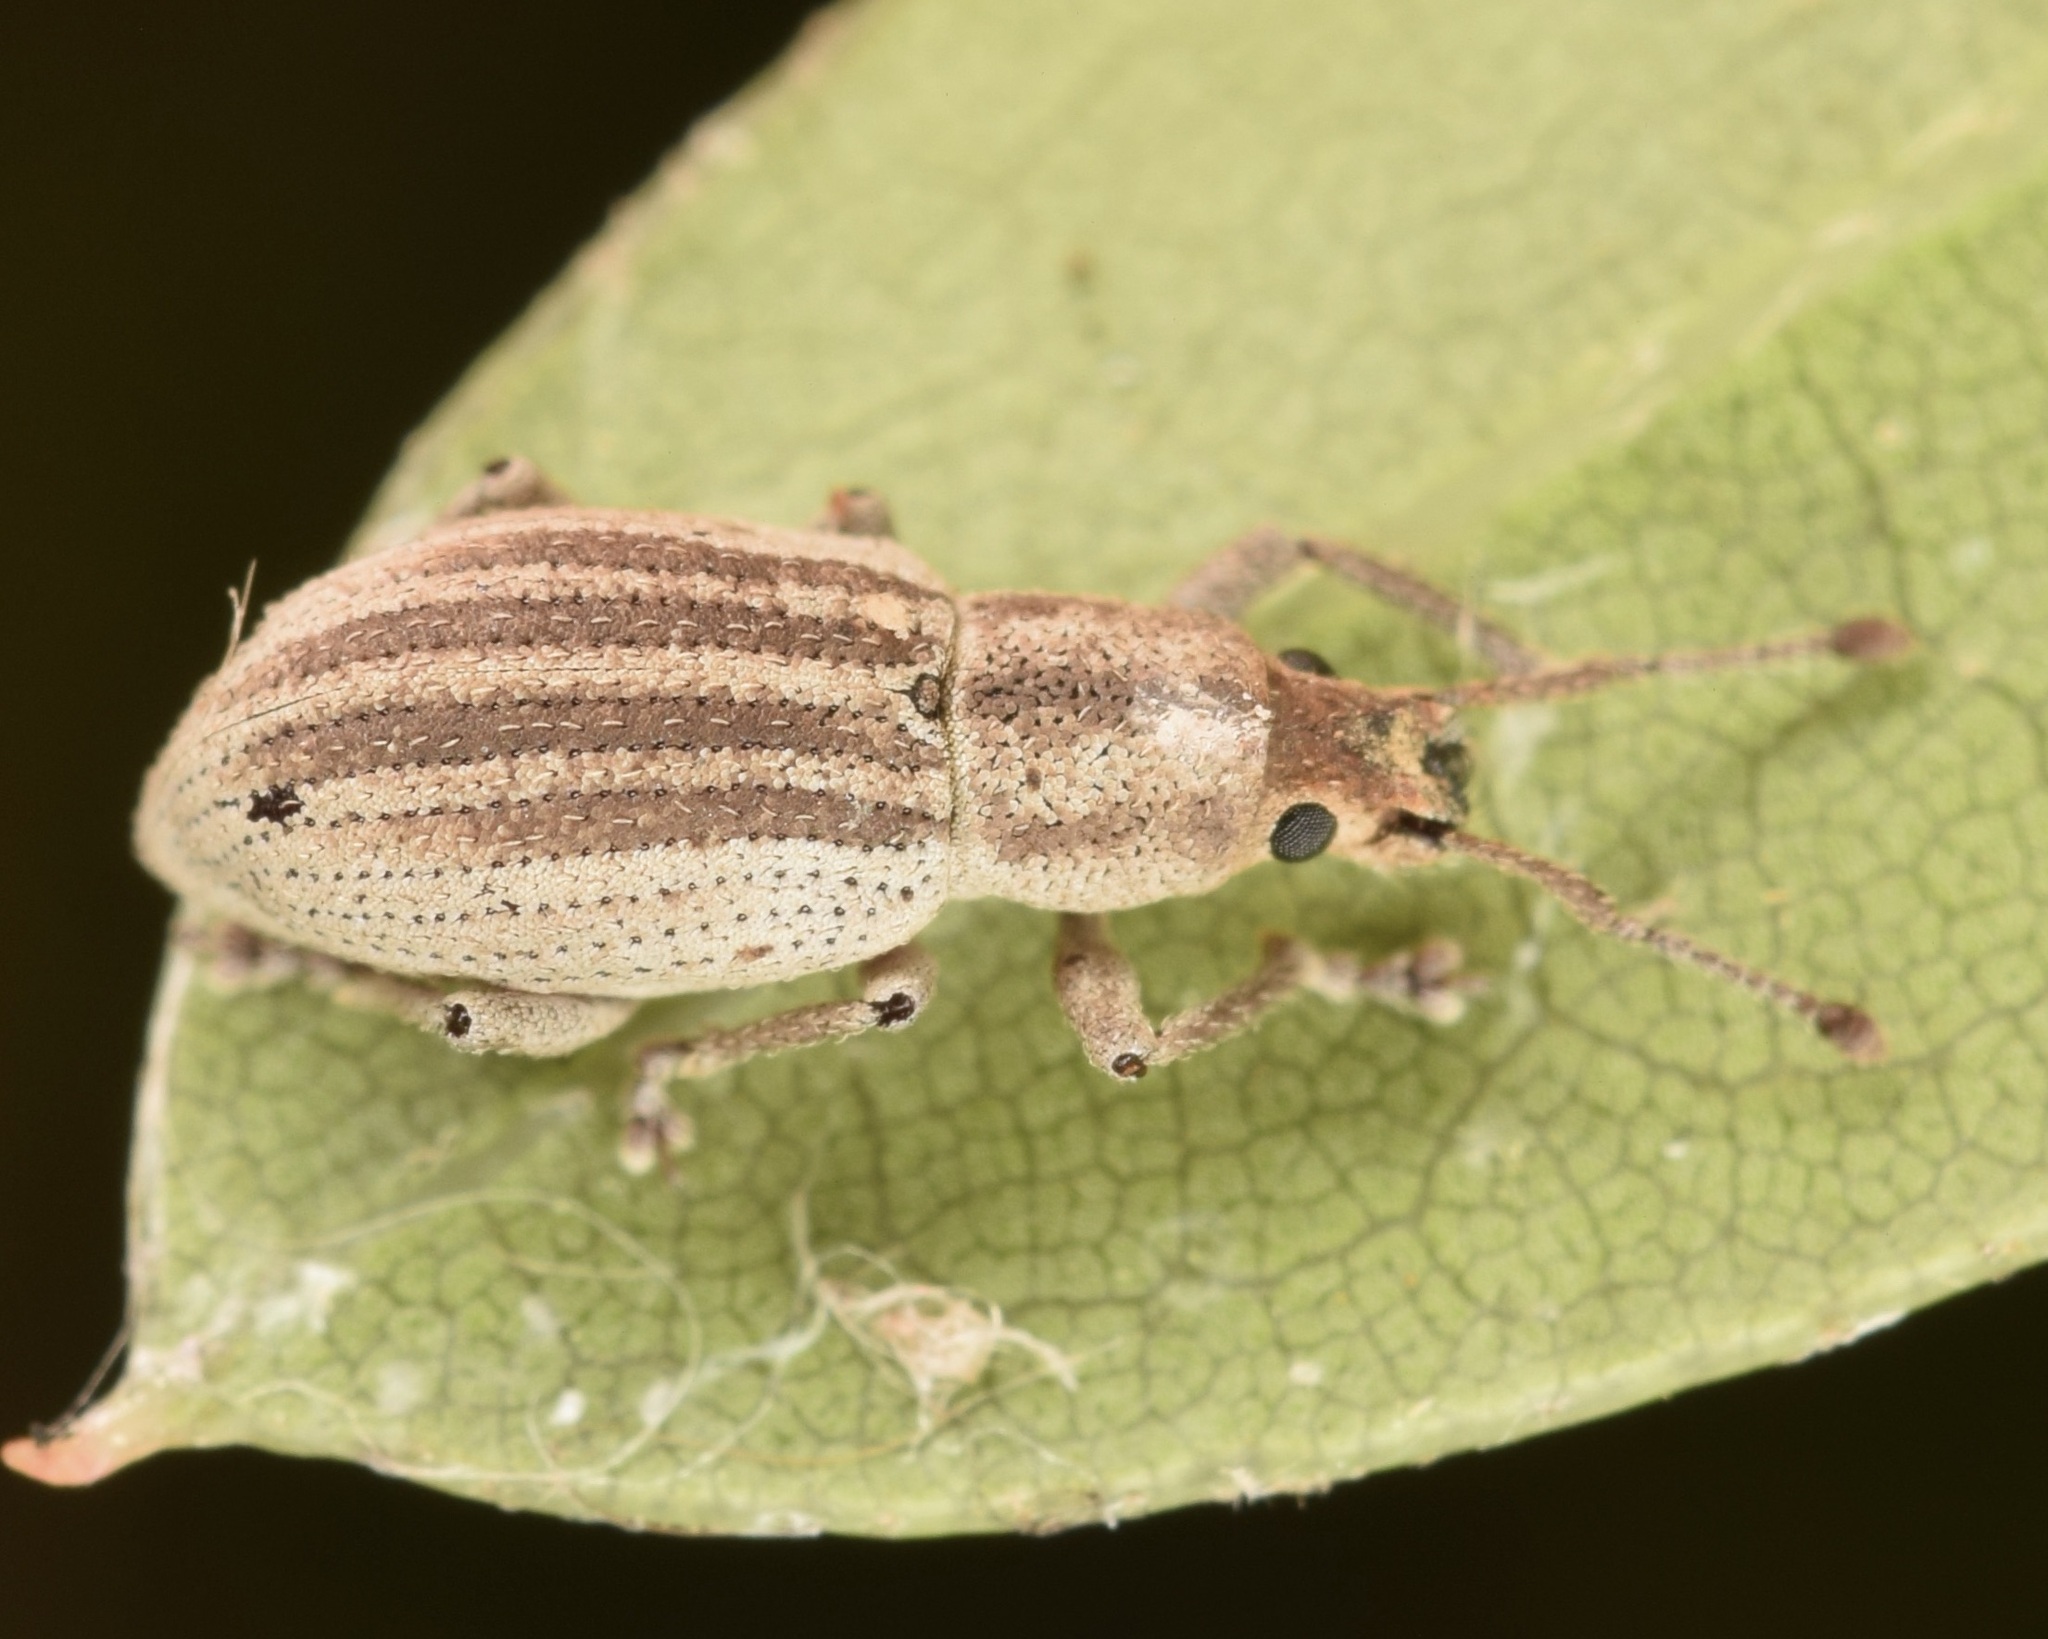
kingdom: Animalia
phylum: Arthropoda
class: Insecta
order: Coleoptera
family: Curculionidae
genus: Aphrastus
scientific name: Aphrastus taeniatus
